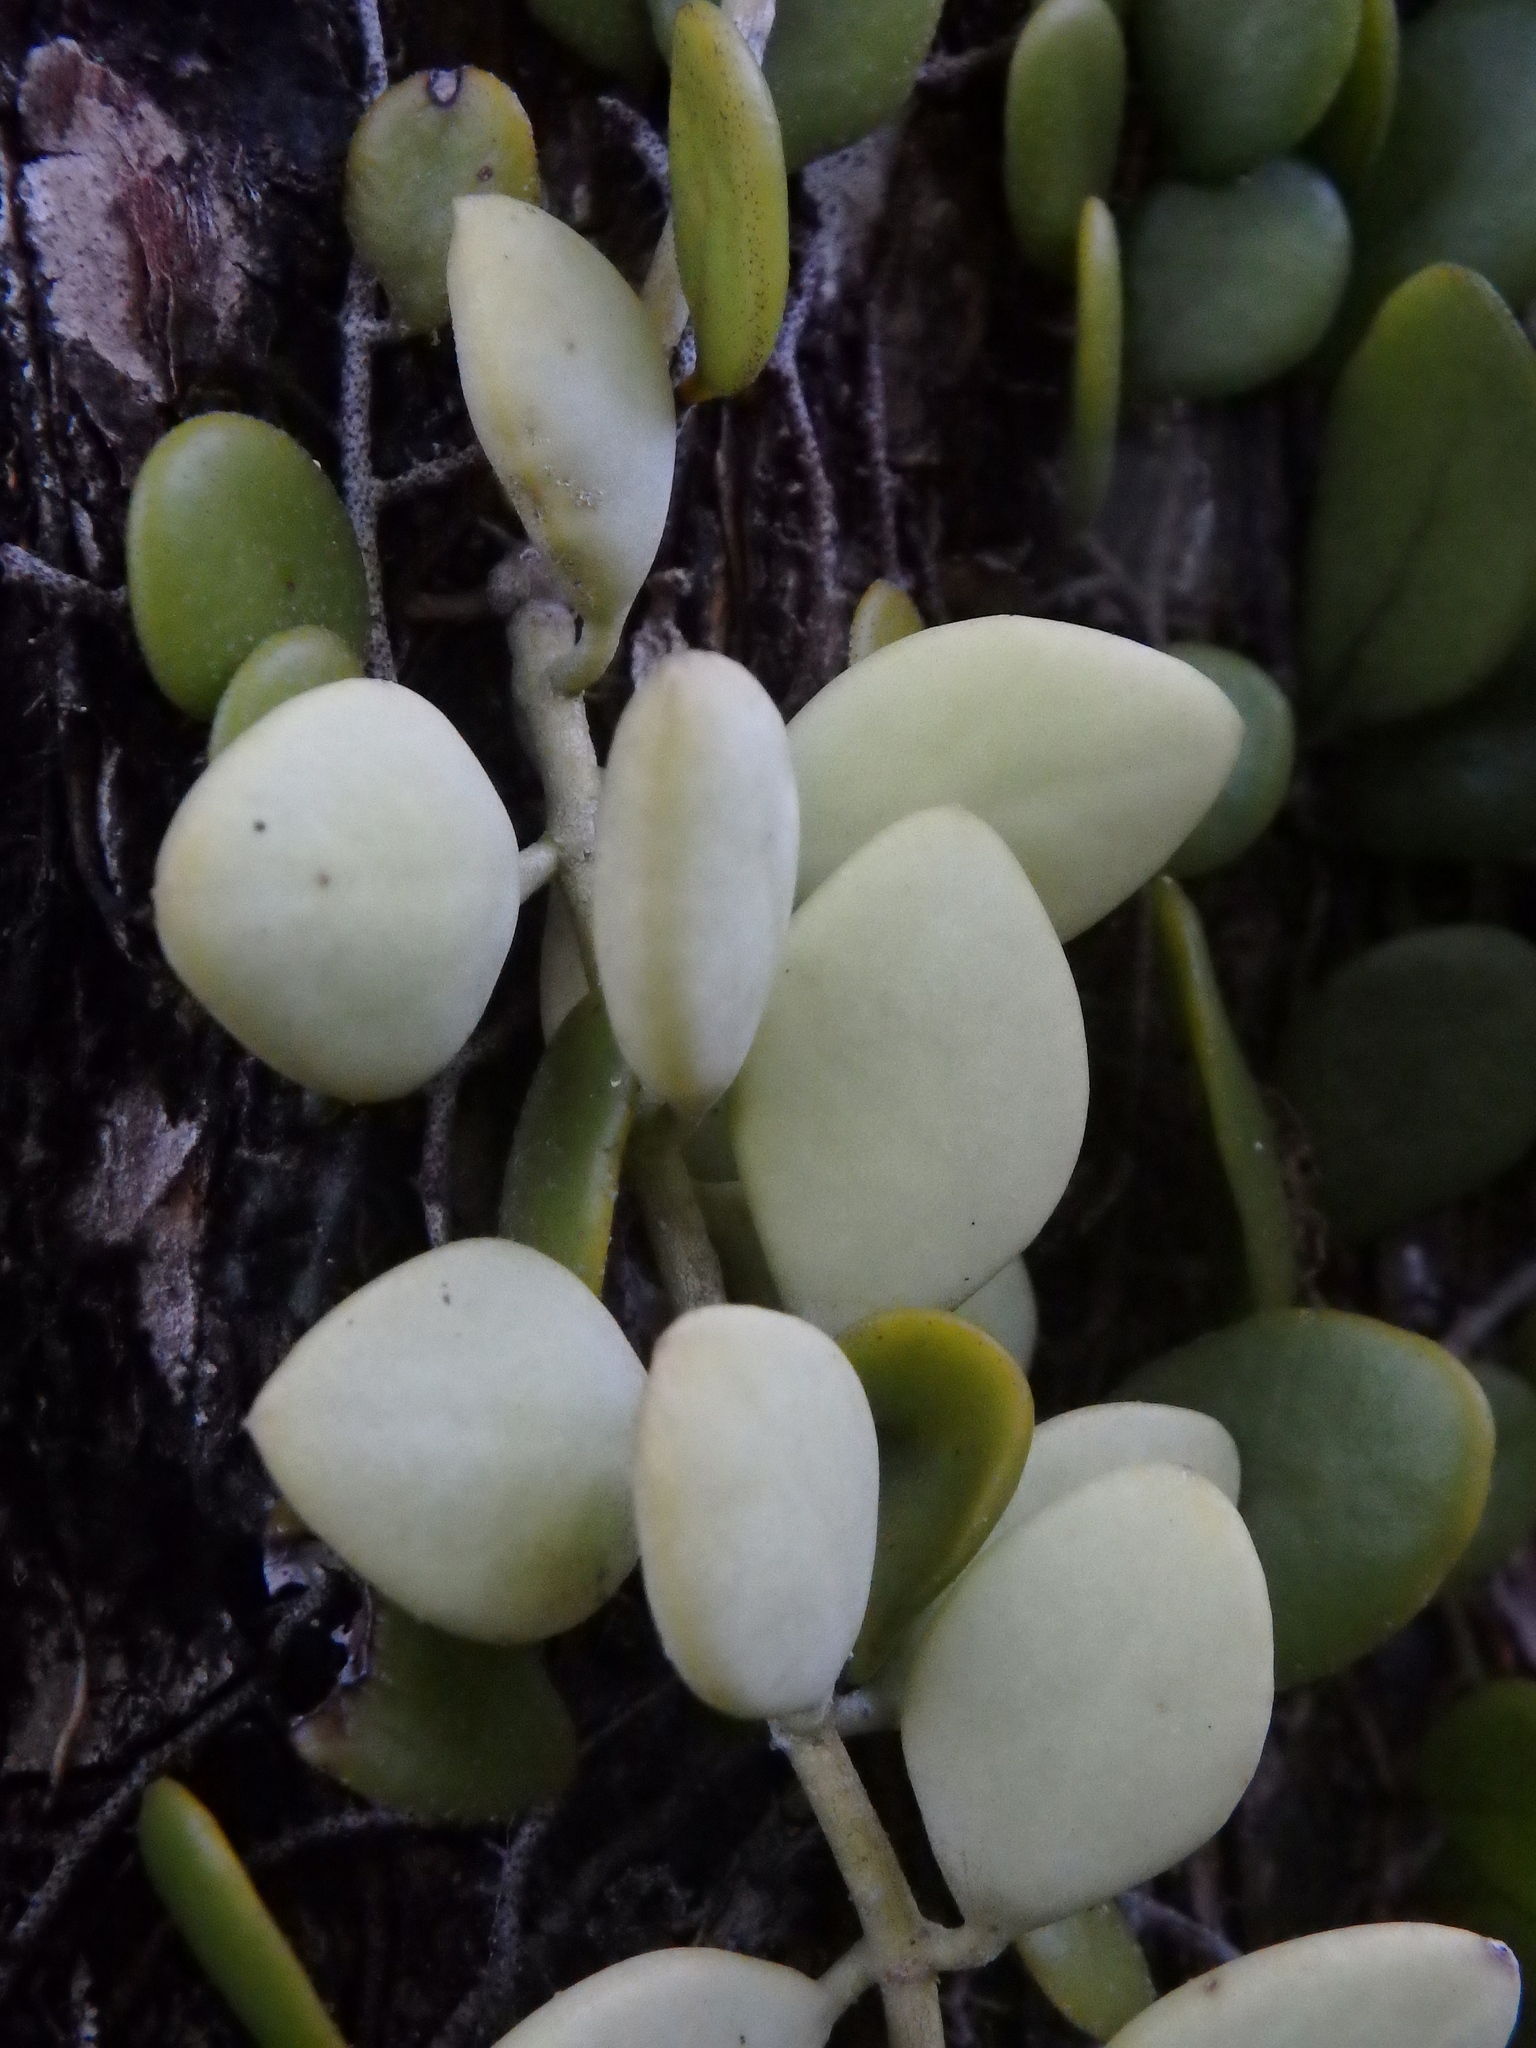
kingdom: Plantae
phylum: Tracheophyta
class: Magnoliopsida
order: Gentianales
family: Apocynaceae
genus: Dischidia
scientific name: Dischidia oiantha
